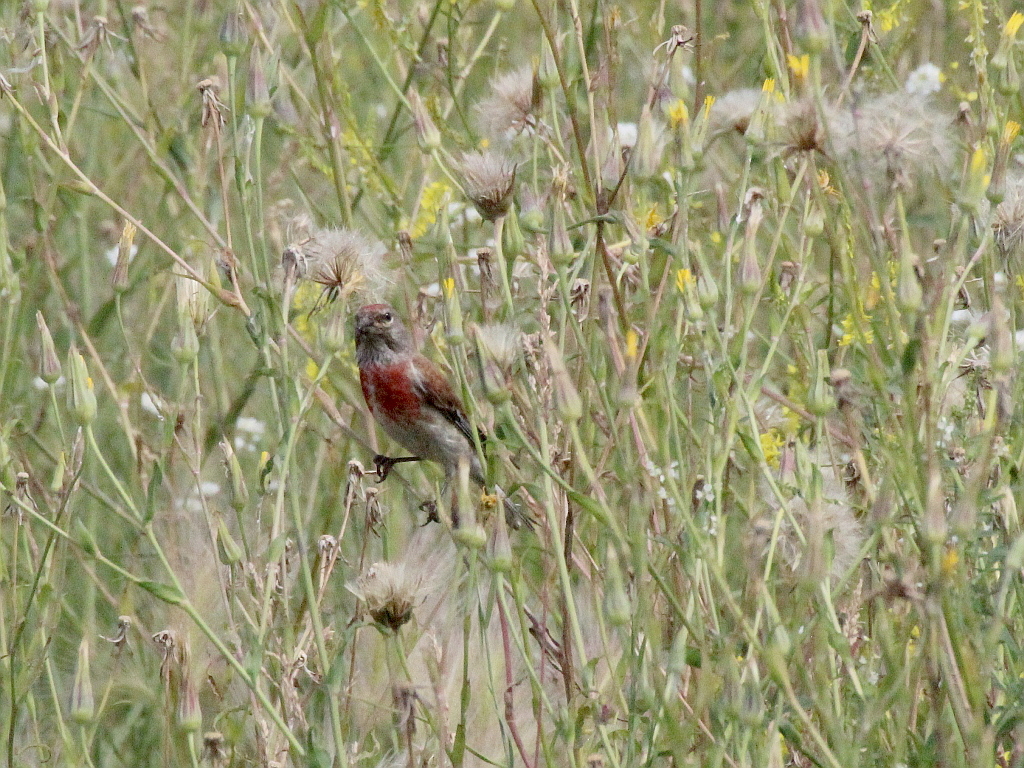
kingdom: Animalia
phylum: Chordata
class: Aves
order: Passeriformes
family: Fringillidae
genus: Linaria
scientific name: Linaria cannabina
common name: Common linnet
